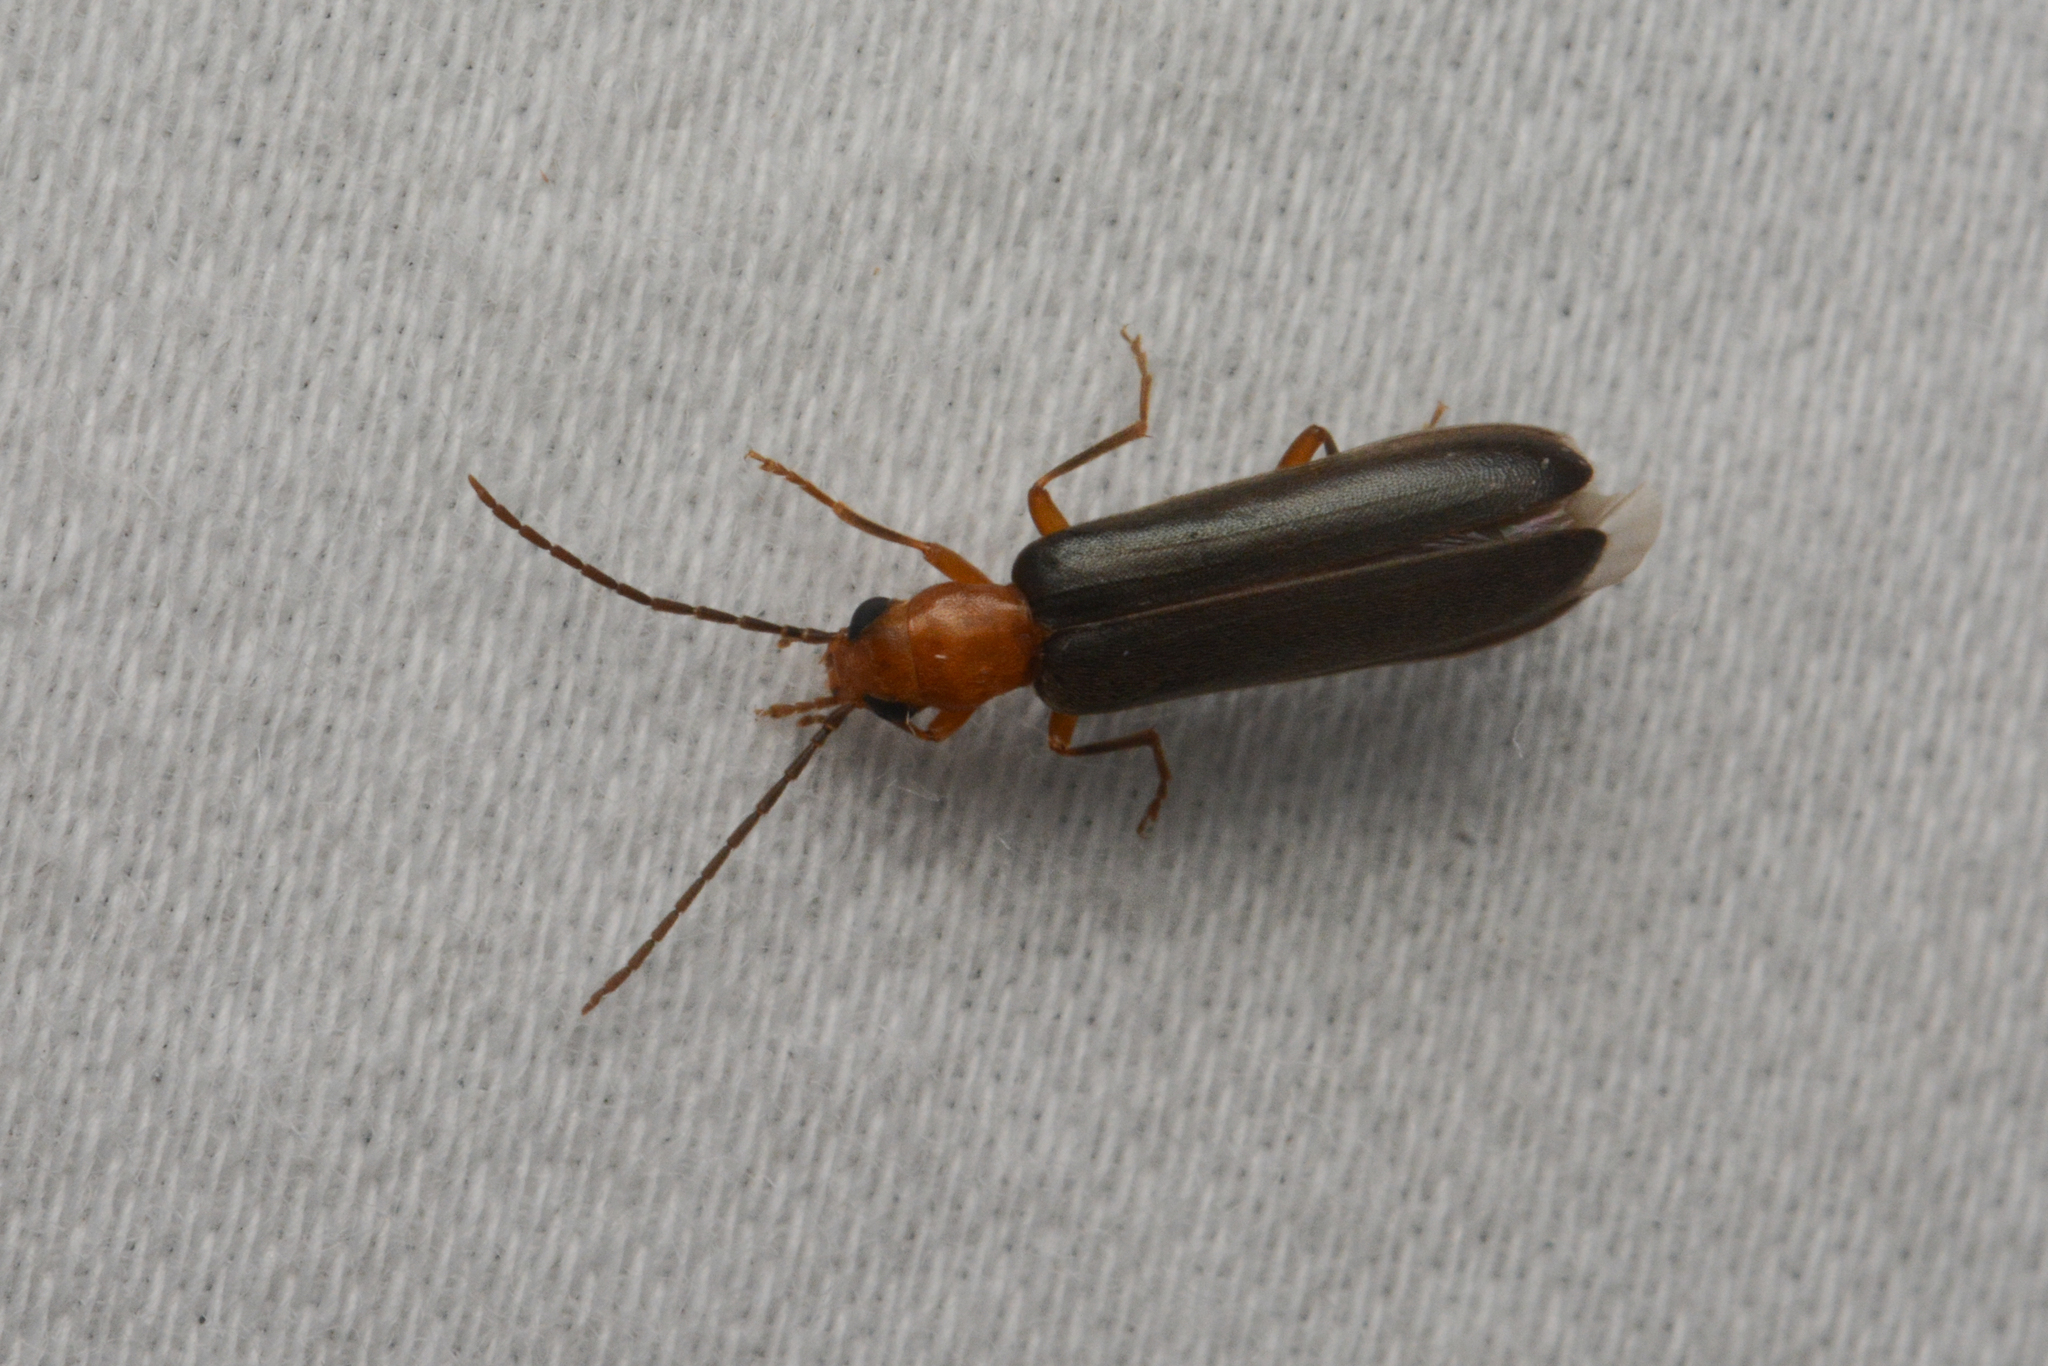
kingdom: Animalia
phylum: Arthropoda
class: Insecta
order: Coleoptera
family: Oedemeridae
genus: Xanthochroina
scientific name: Xanthochroina bicolor
